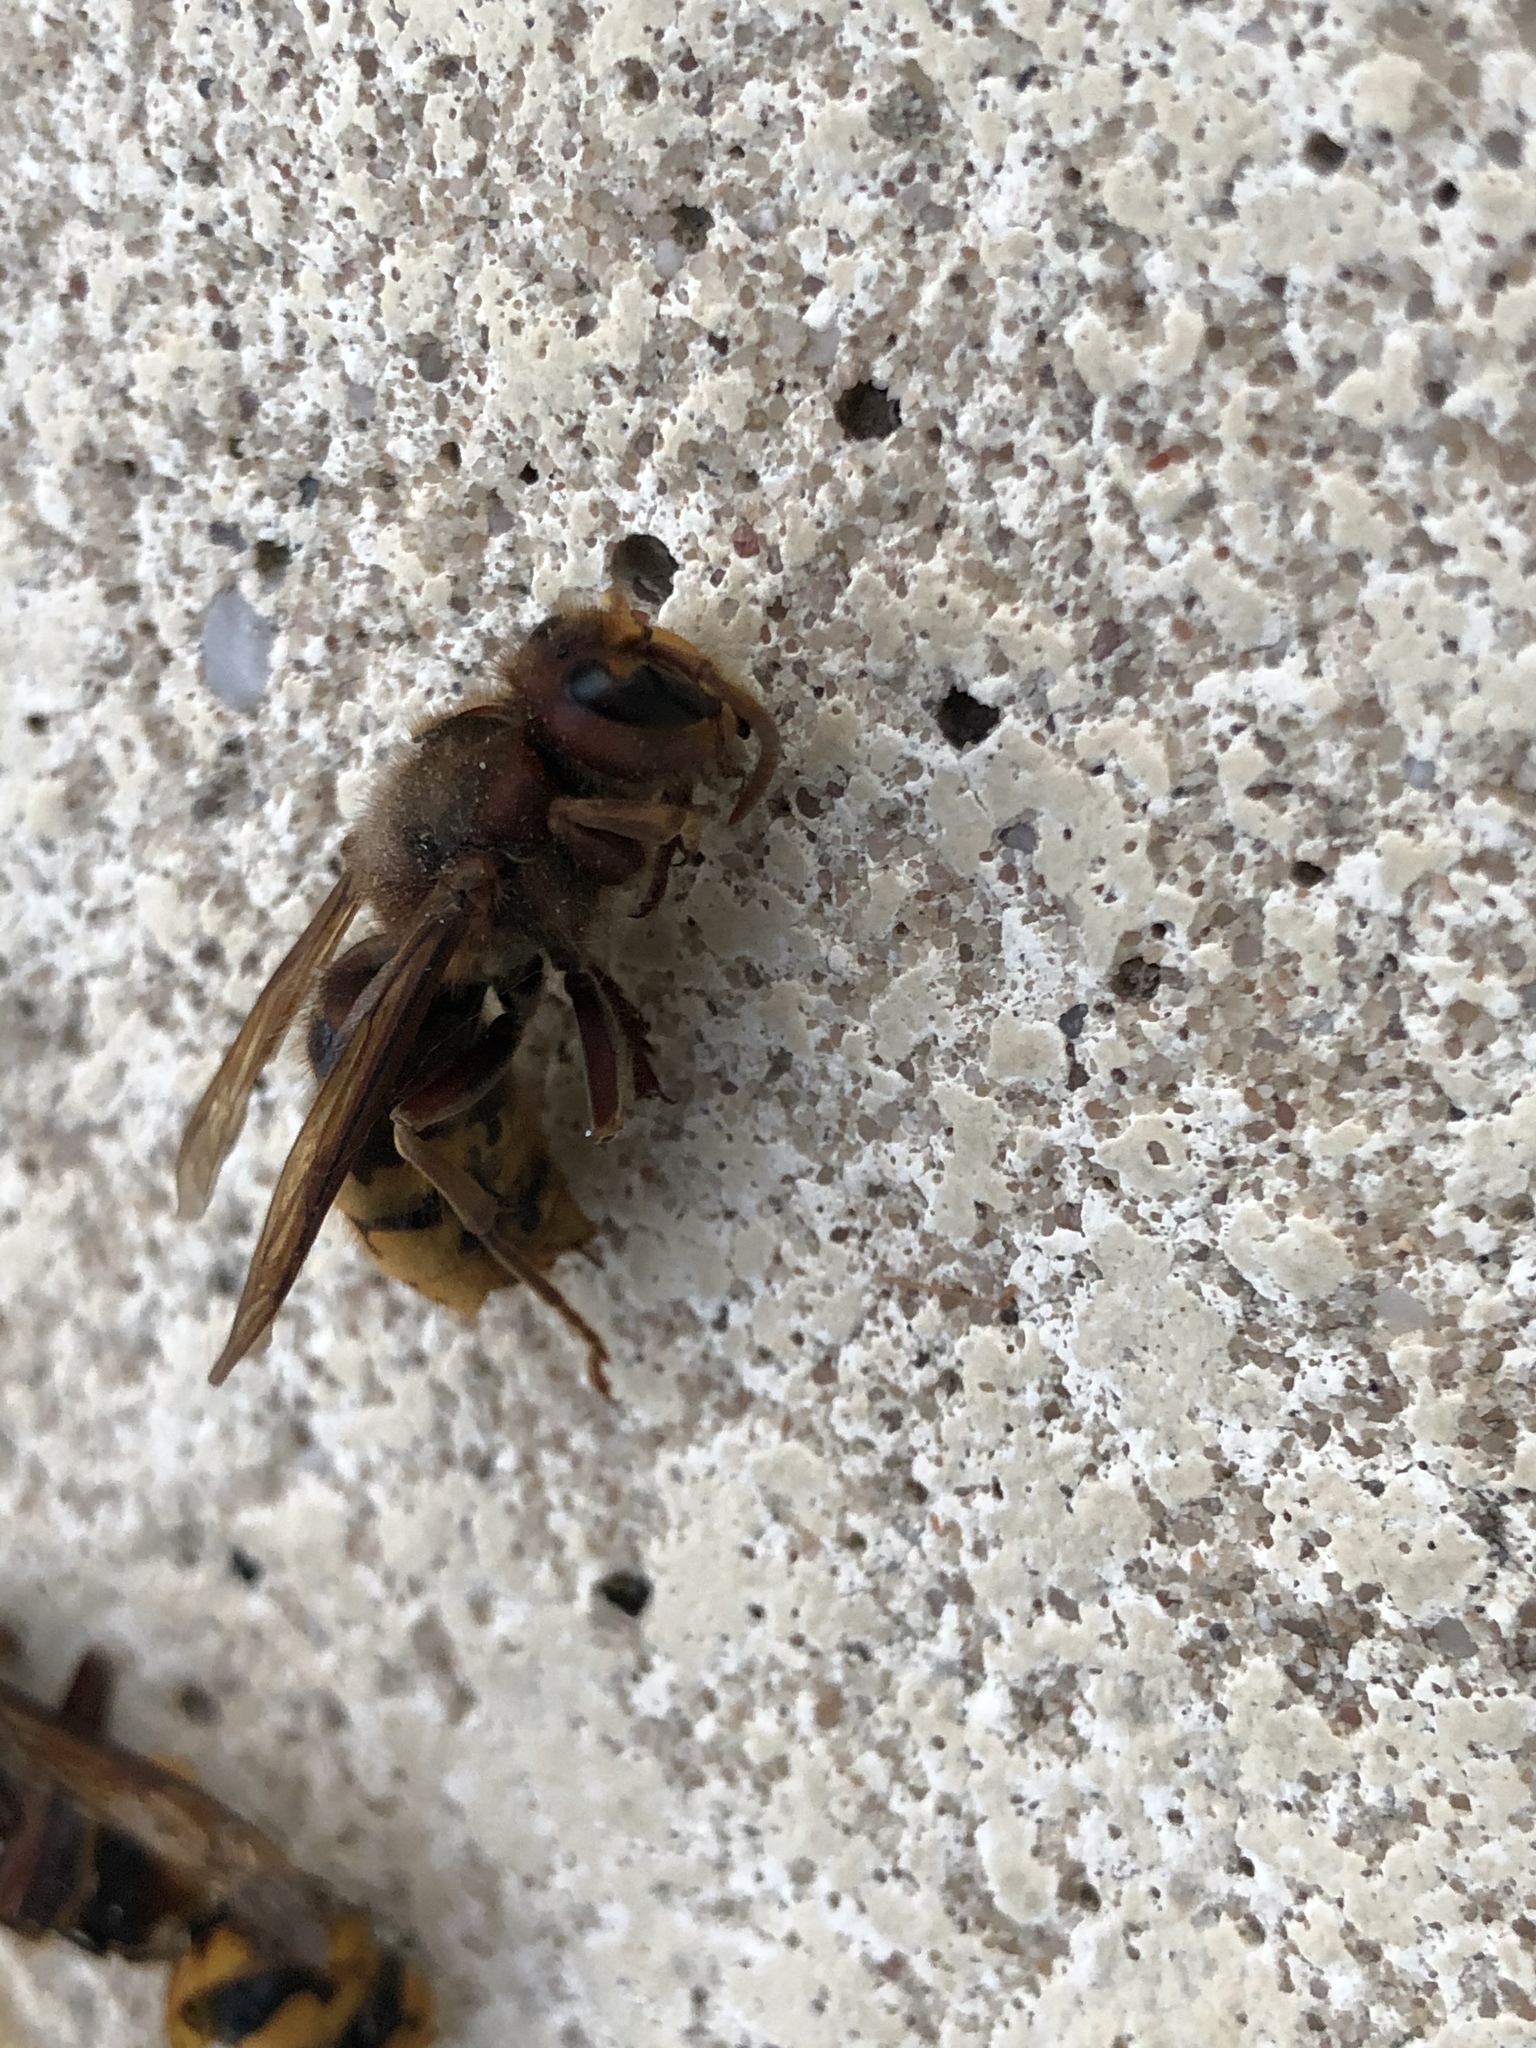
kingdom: Animalia
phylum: Arthropoda
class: Insecta
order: Hymenoptera
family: Vespidae
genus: Vespa
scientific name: Vespa crabro
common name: Hornet
